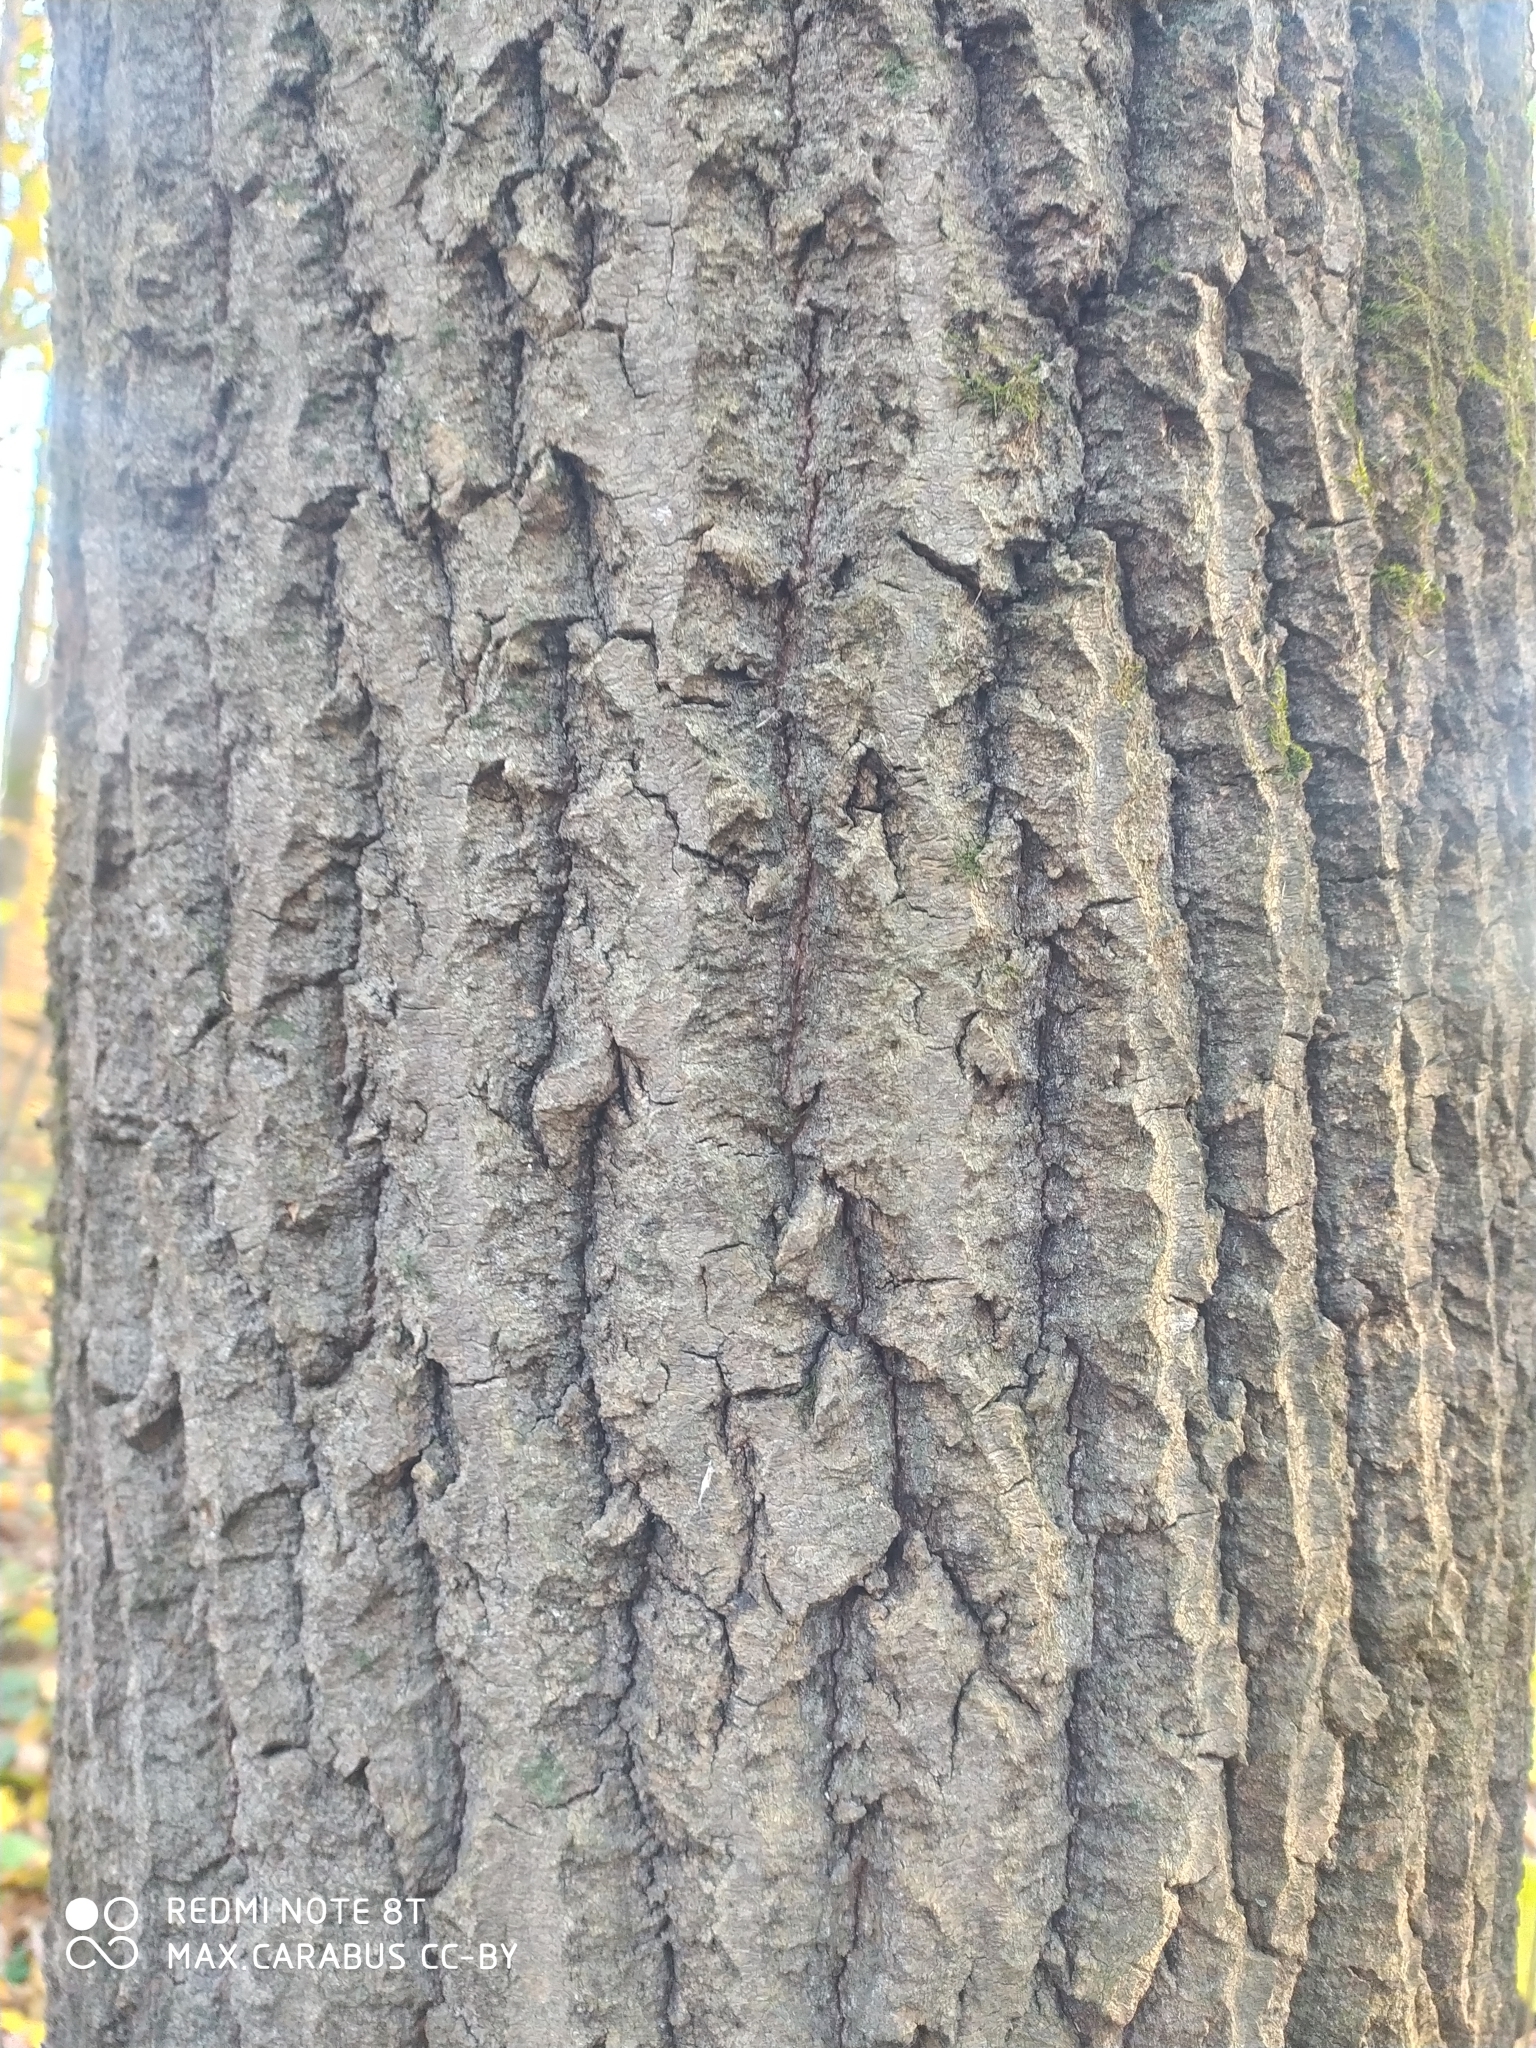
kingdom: Plantae
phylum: Tracheophyta
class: Magnoliopsida
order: Malpighiales
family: Salicaceae
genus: Populus
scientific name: Populus tremula
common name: European aspen
